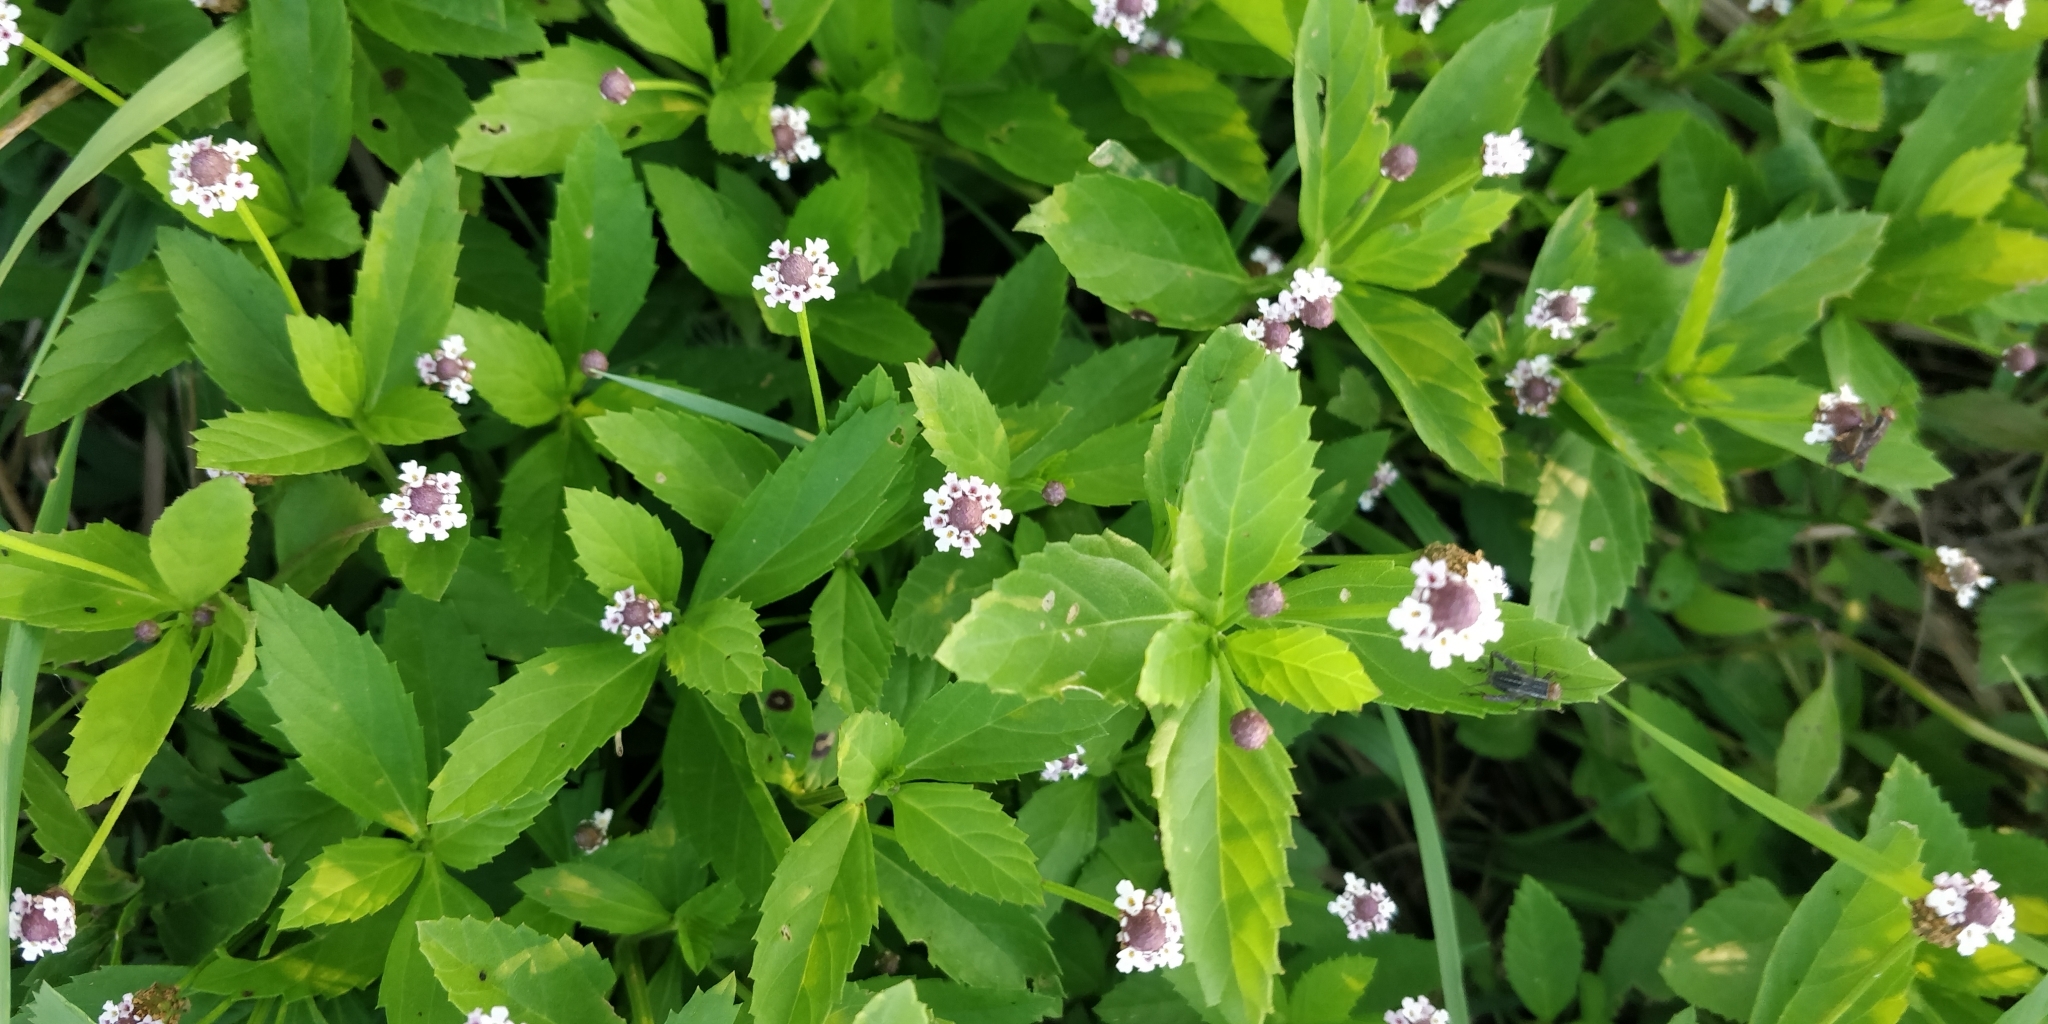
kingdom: Plantae
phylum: Tracheophyta
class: Magnoliopsida
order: Lamiales
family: Verbenaceae
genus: Phyla
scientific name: Phyla lanceolata
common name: Northern fogfruit
